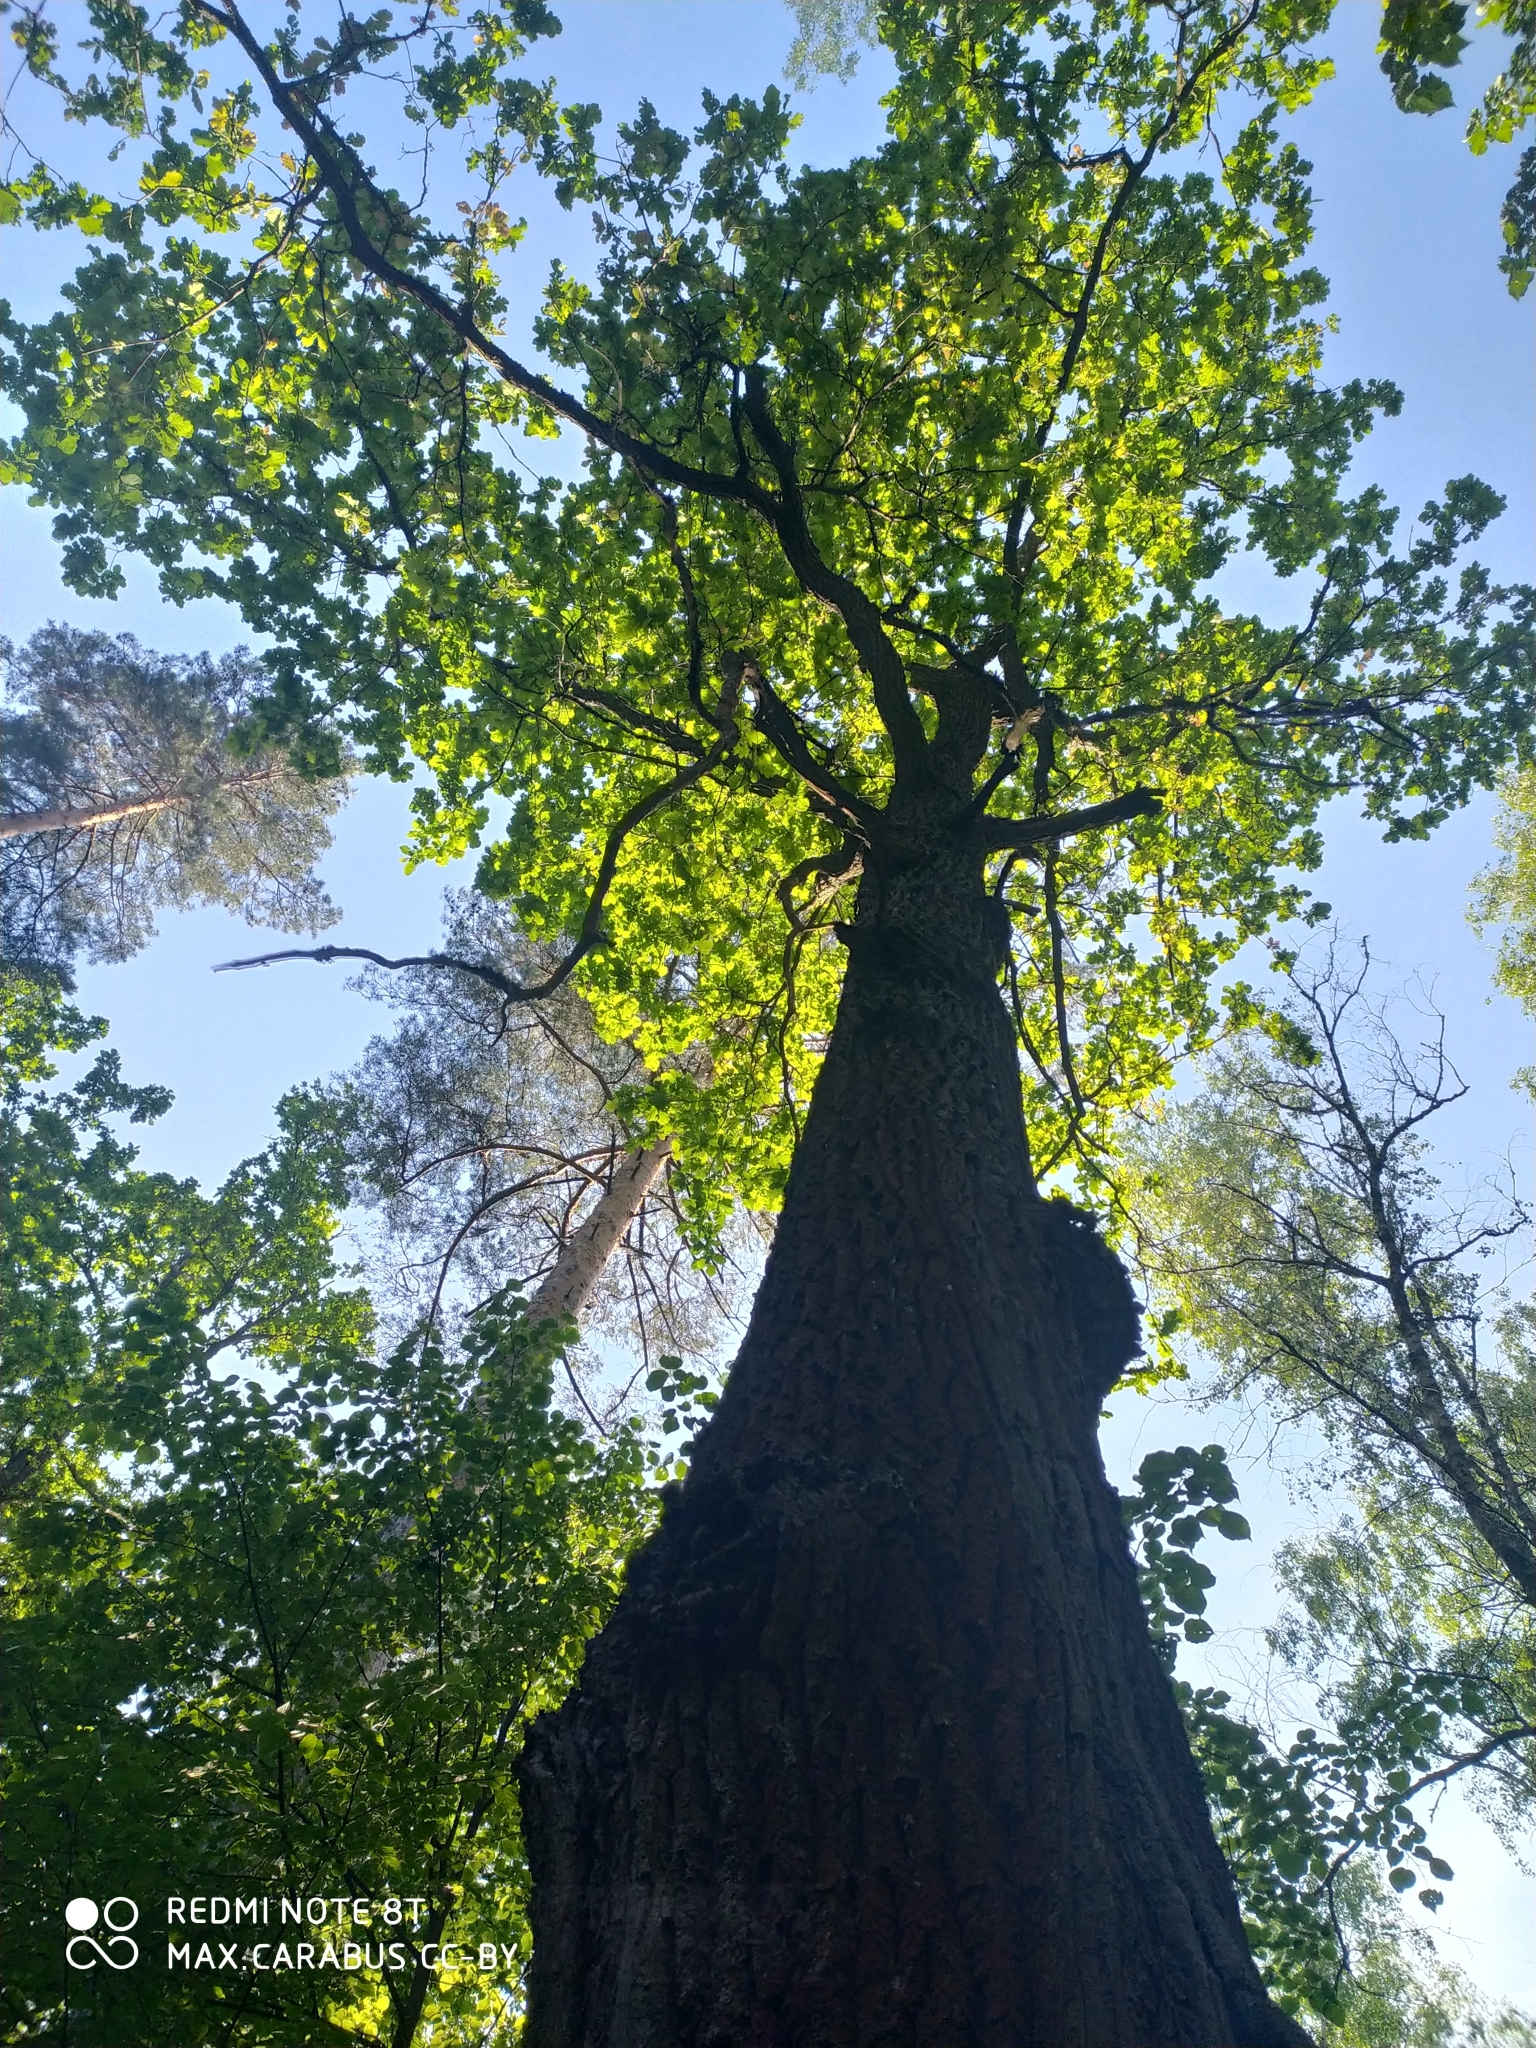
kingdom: Plantae
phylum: Tracheophyta
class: Magnoliopsida
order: Fagales
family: Fagaceae
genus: Quercus
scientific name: Quercus robur
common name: Pedunculate oak
